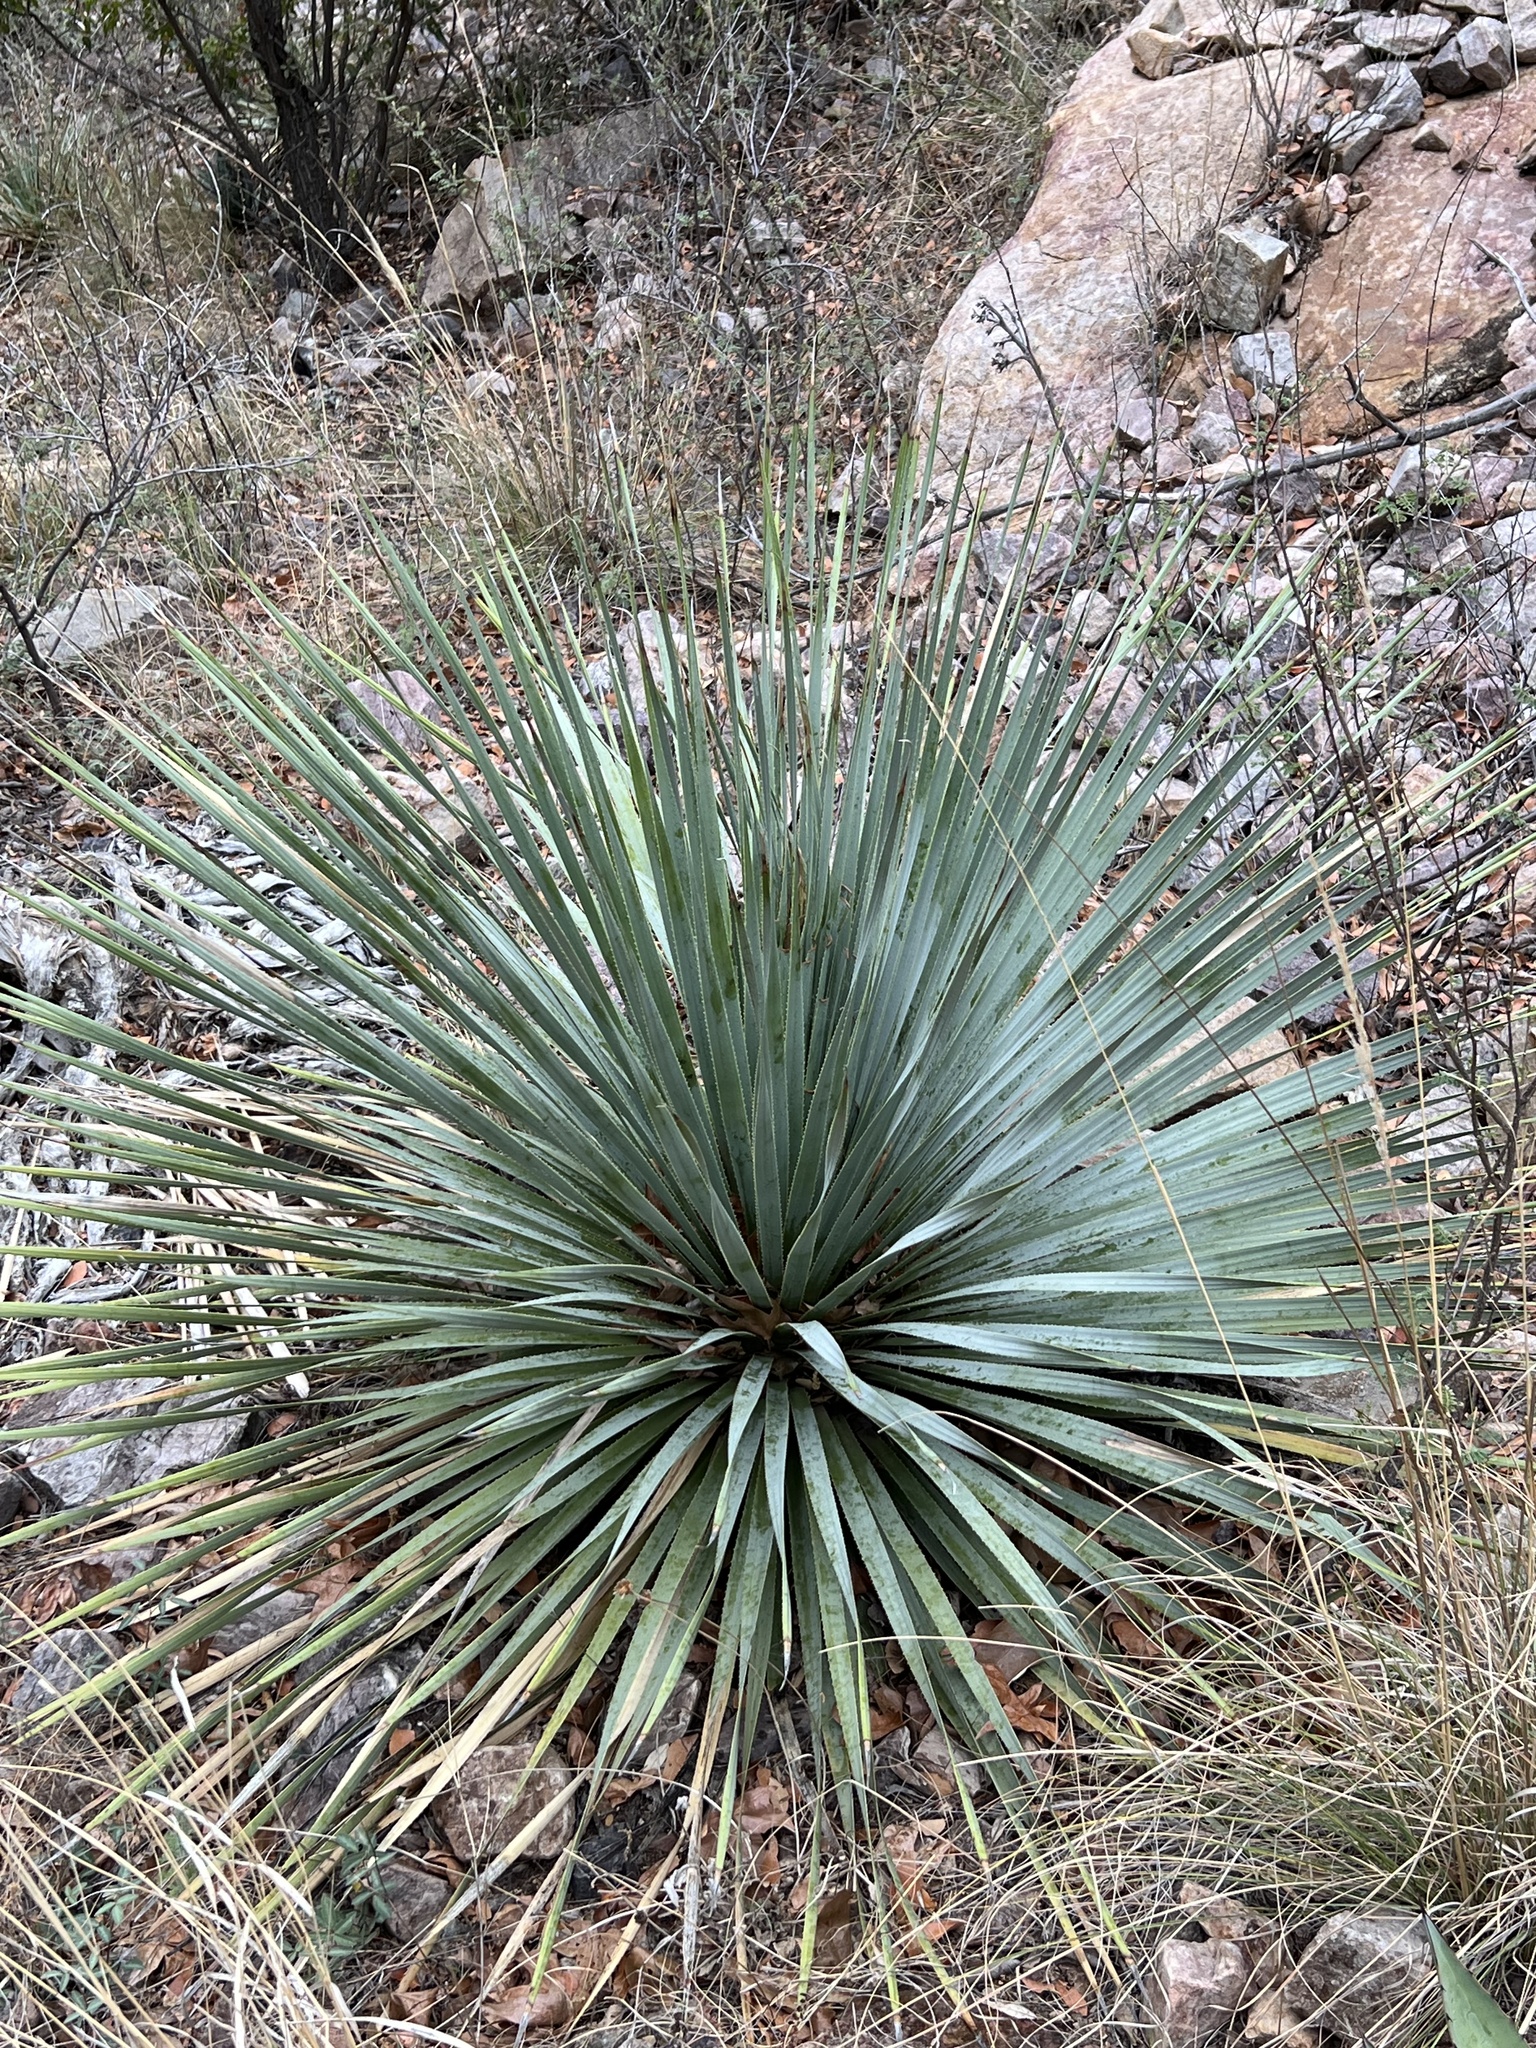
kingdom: Plantae
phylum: Tracheophyta
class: Liliopsida
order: Asparagales
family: Asparagaceae
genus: Dasylirion
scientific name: Dasylirion wheeleri
